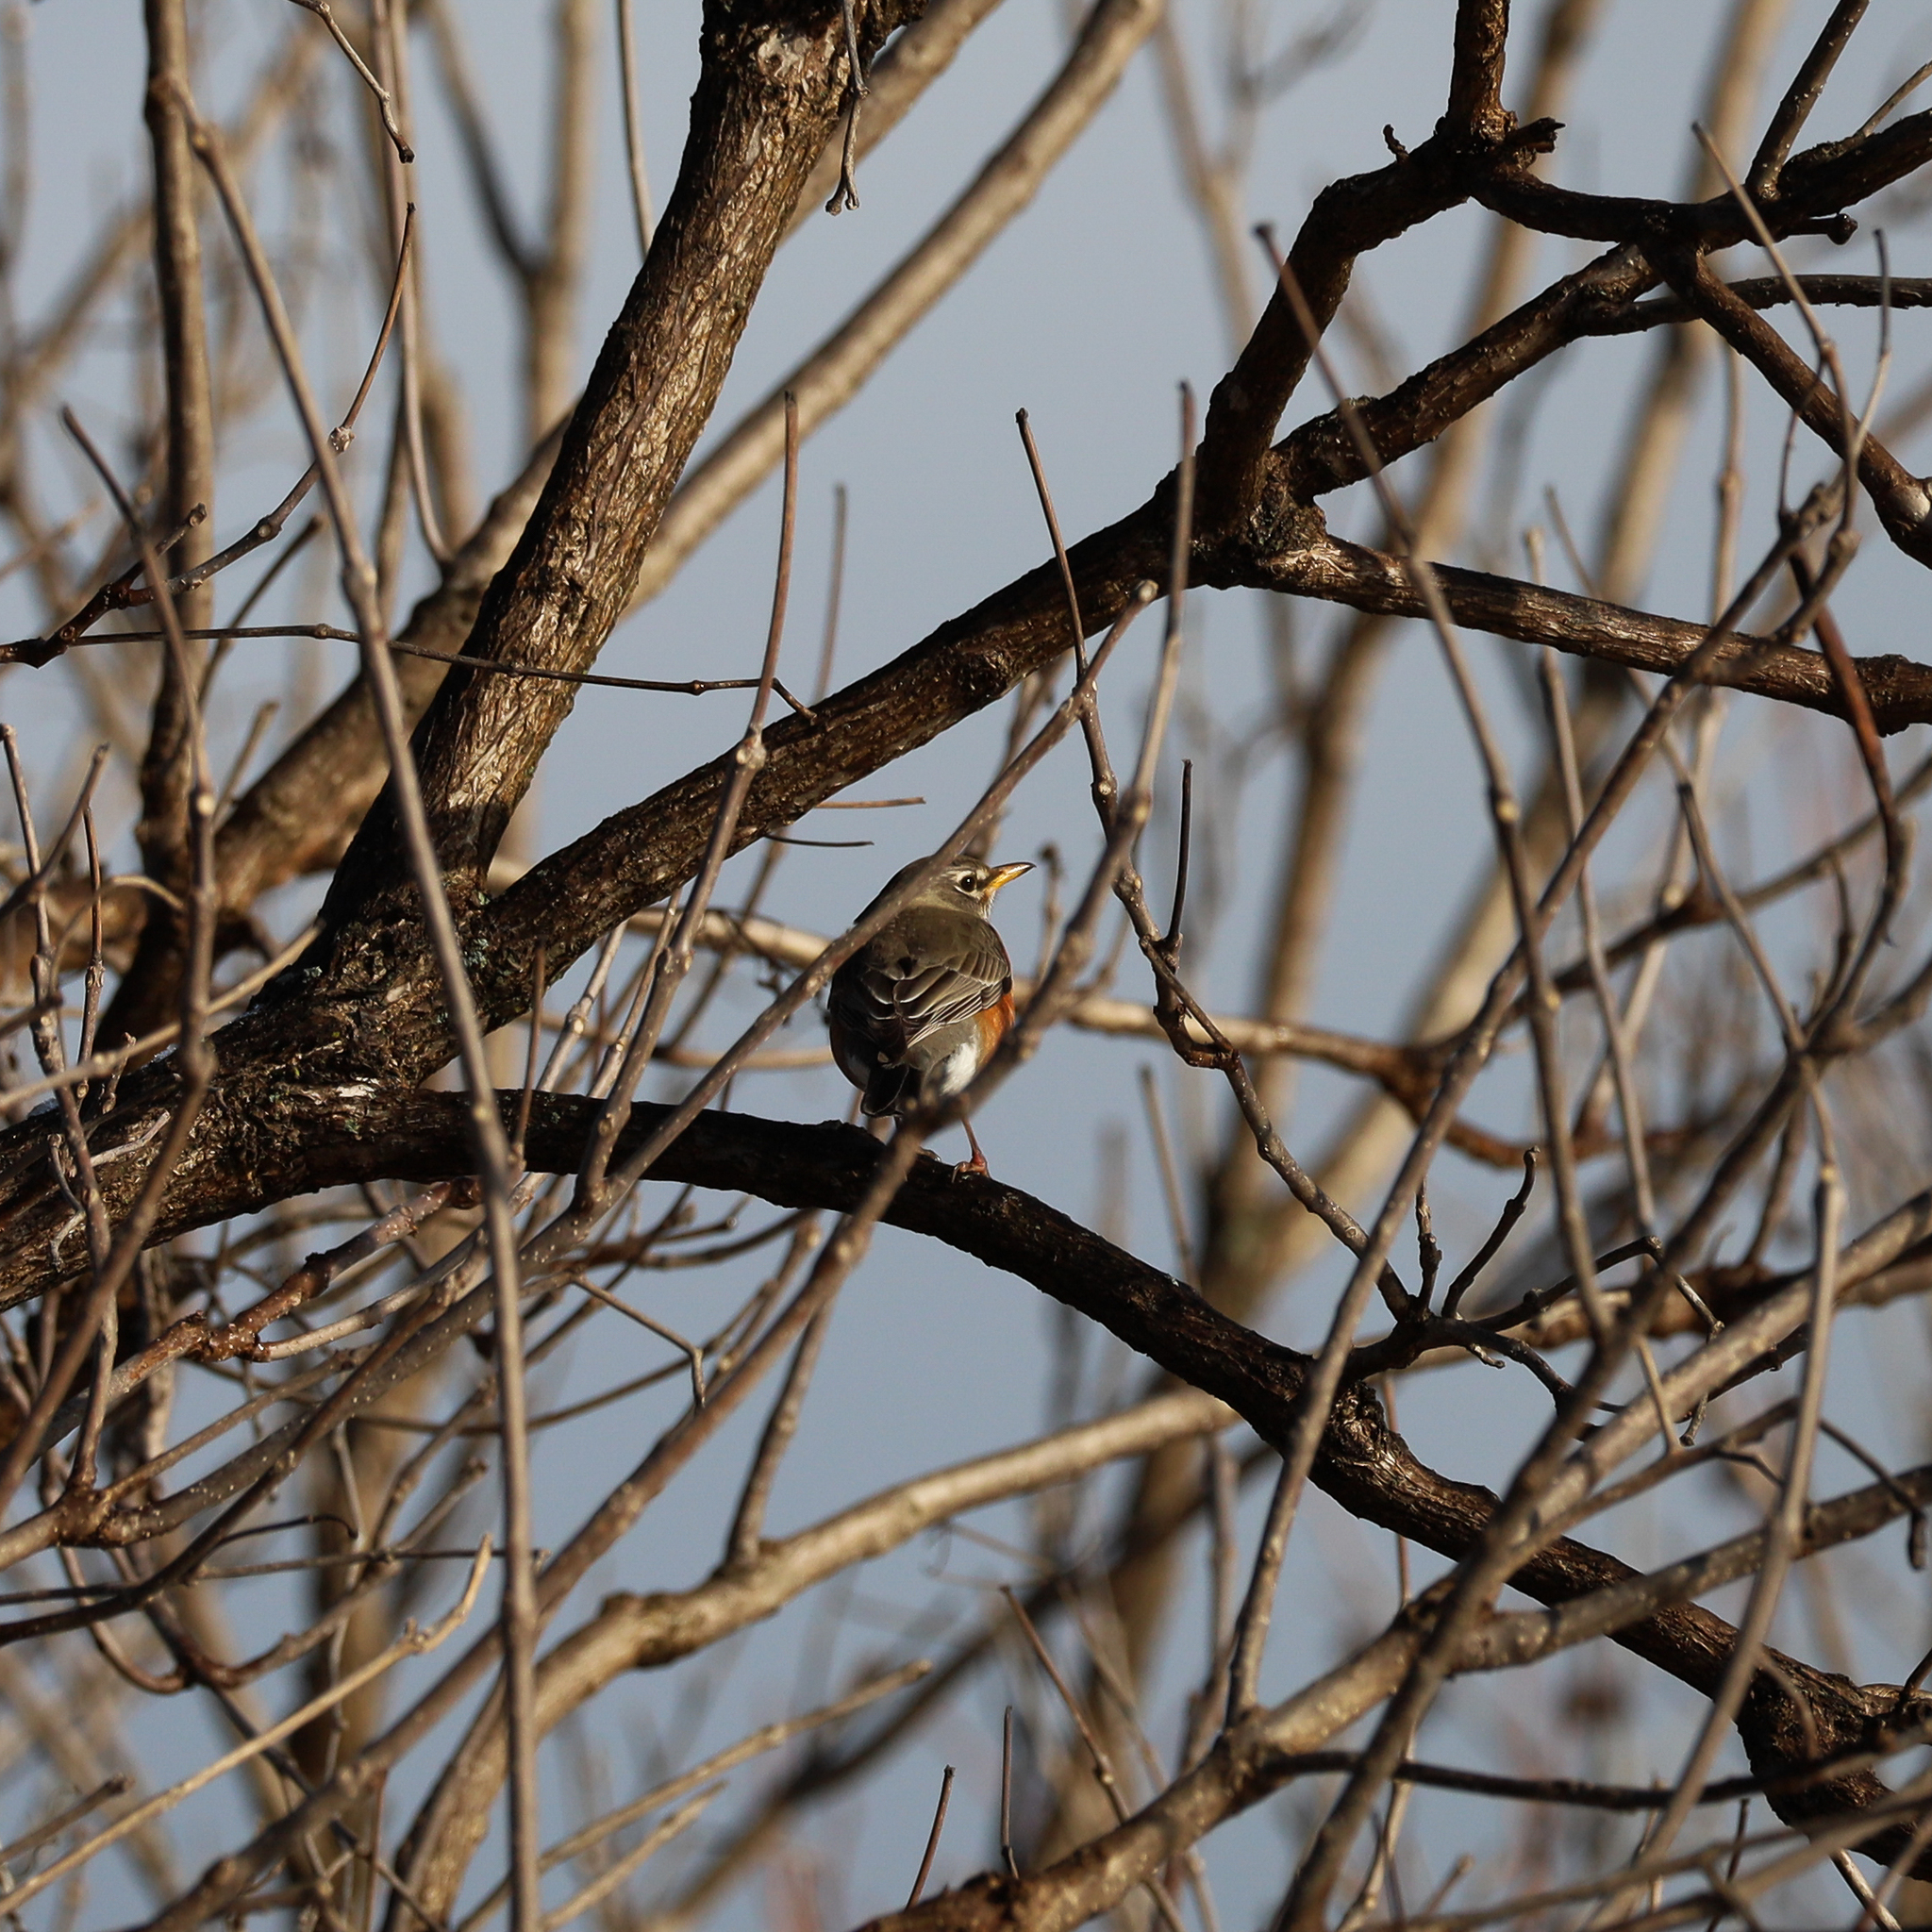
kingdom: Animalia
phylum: Chordata
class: Aves
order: Passeriformes
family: Turdidae
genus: Turdus
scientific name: Turdus migratorius
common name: American robin
